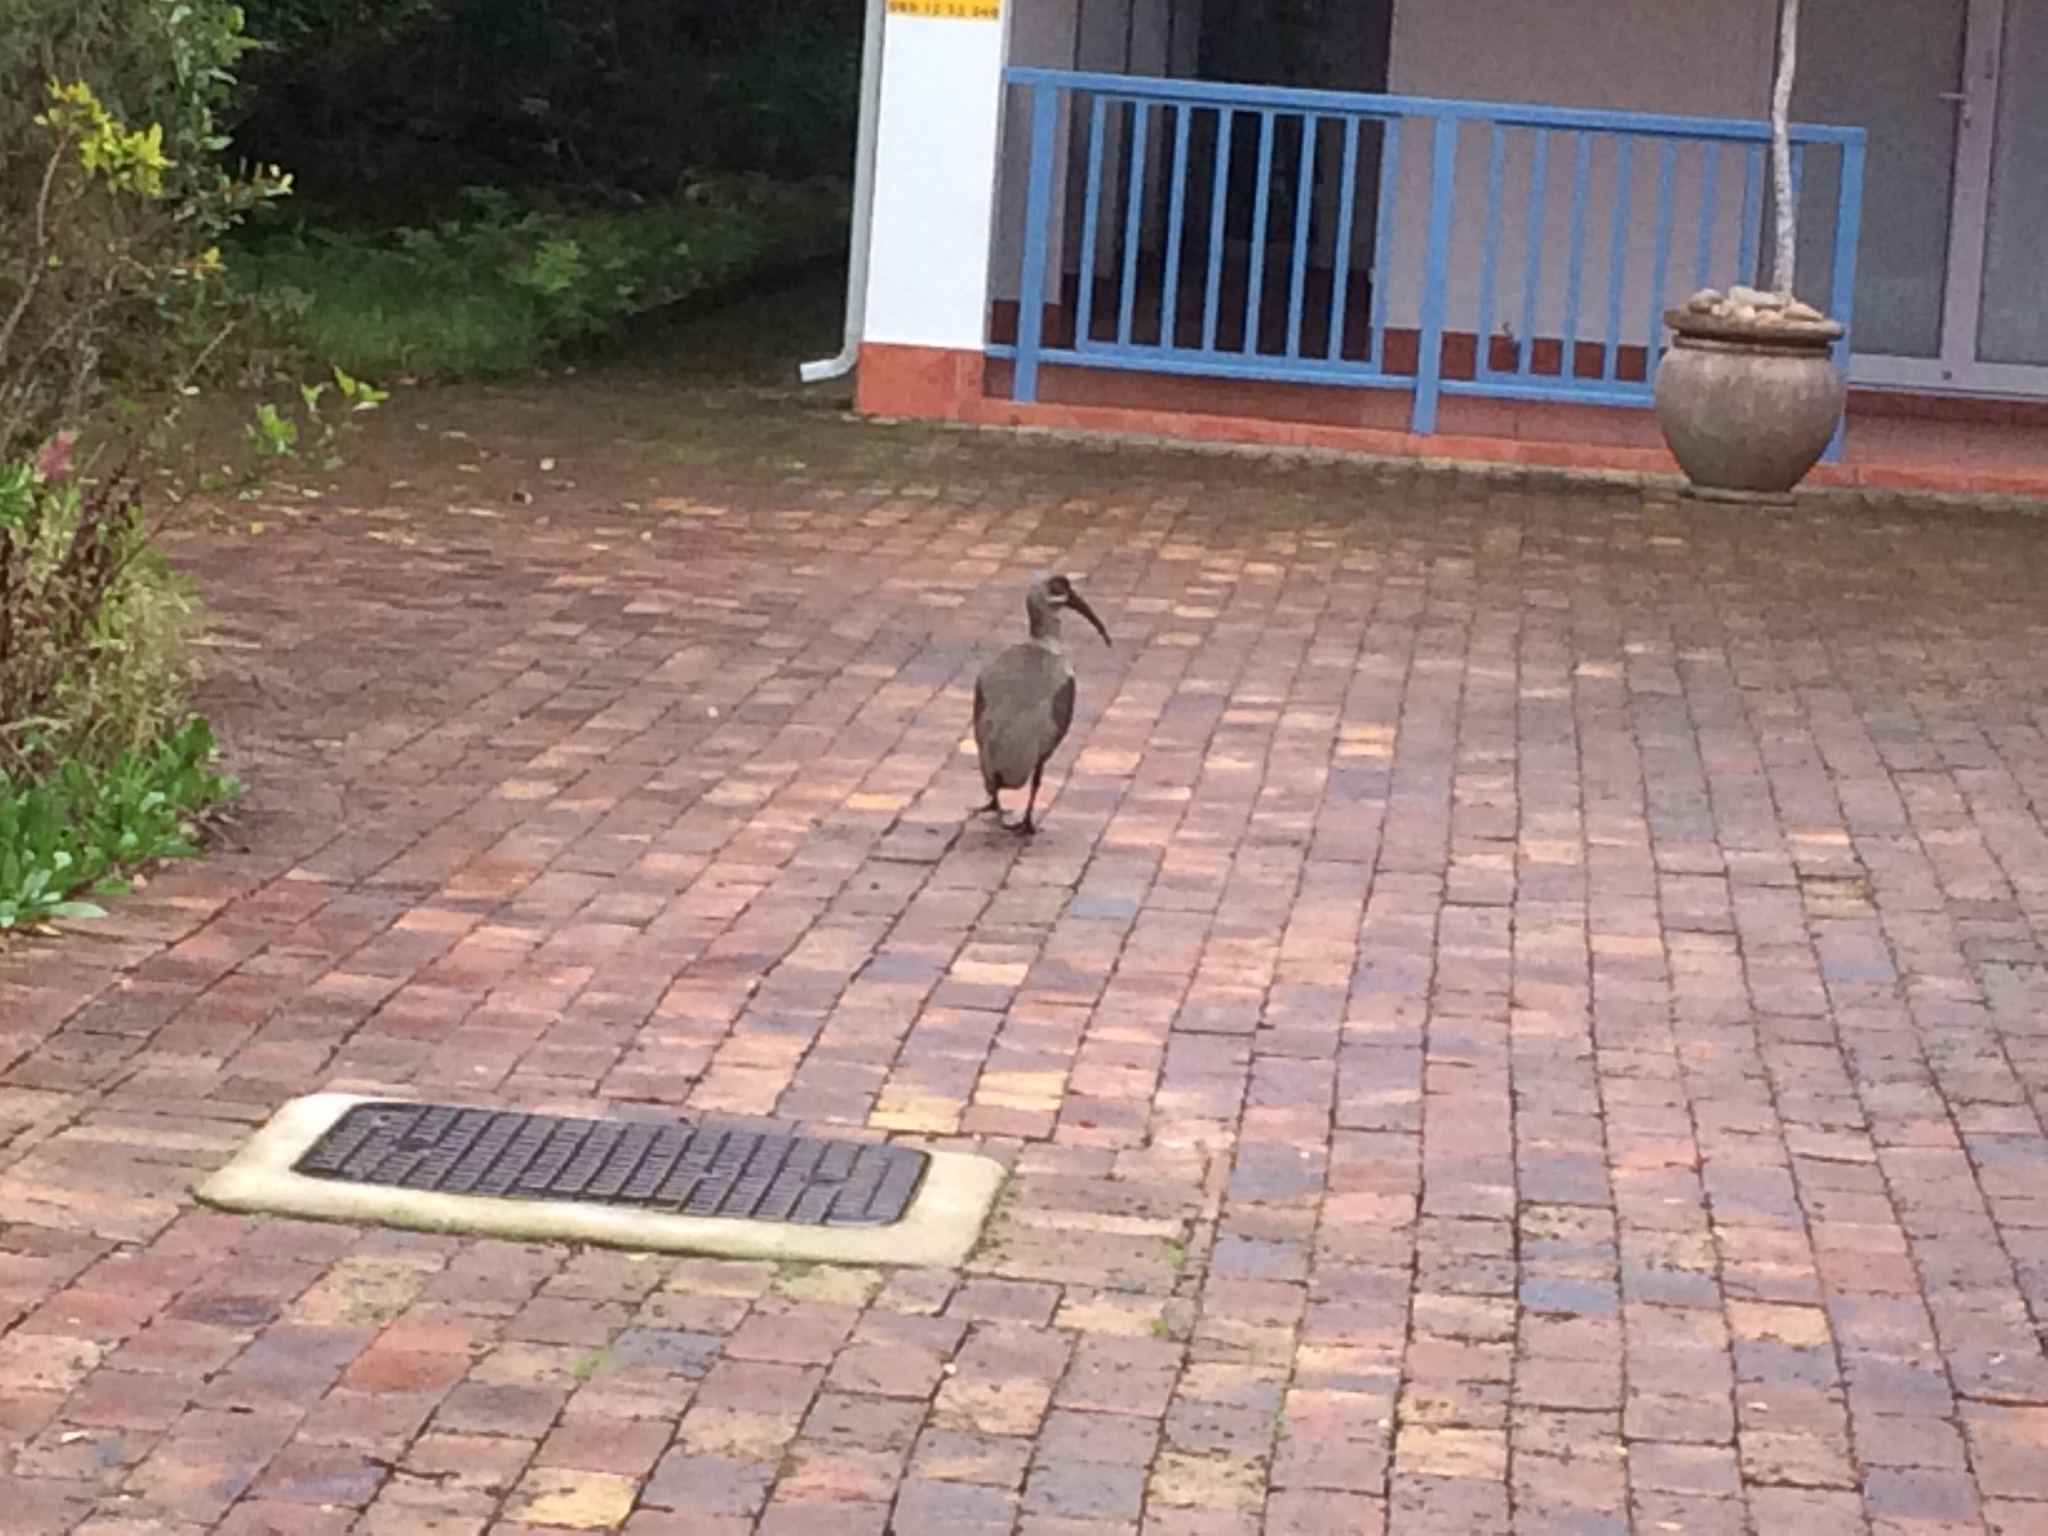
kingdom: Animalia
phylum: Chordata
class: Aves
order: Pelecaniformes
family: Threskiornithidae
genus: Bostrychia
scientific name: Bostrychia hagedash
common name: Hadada ibis
